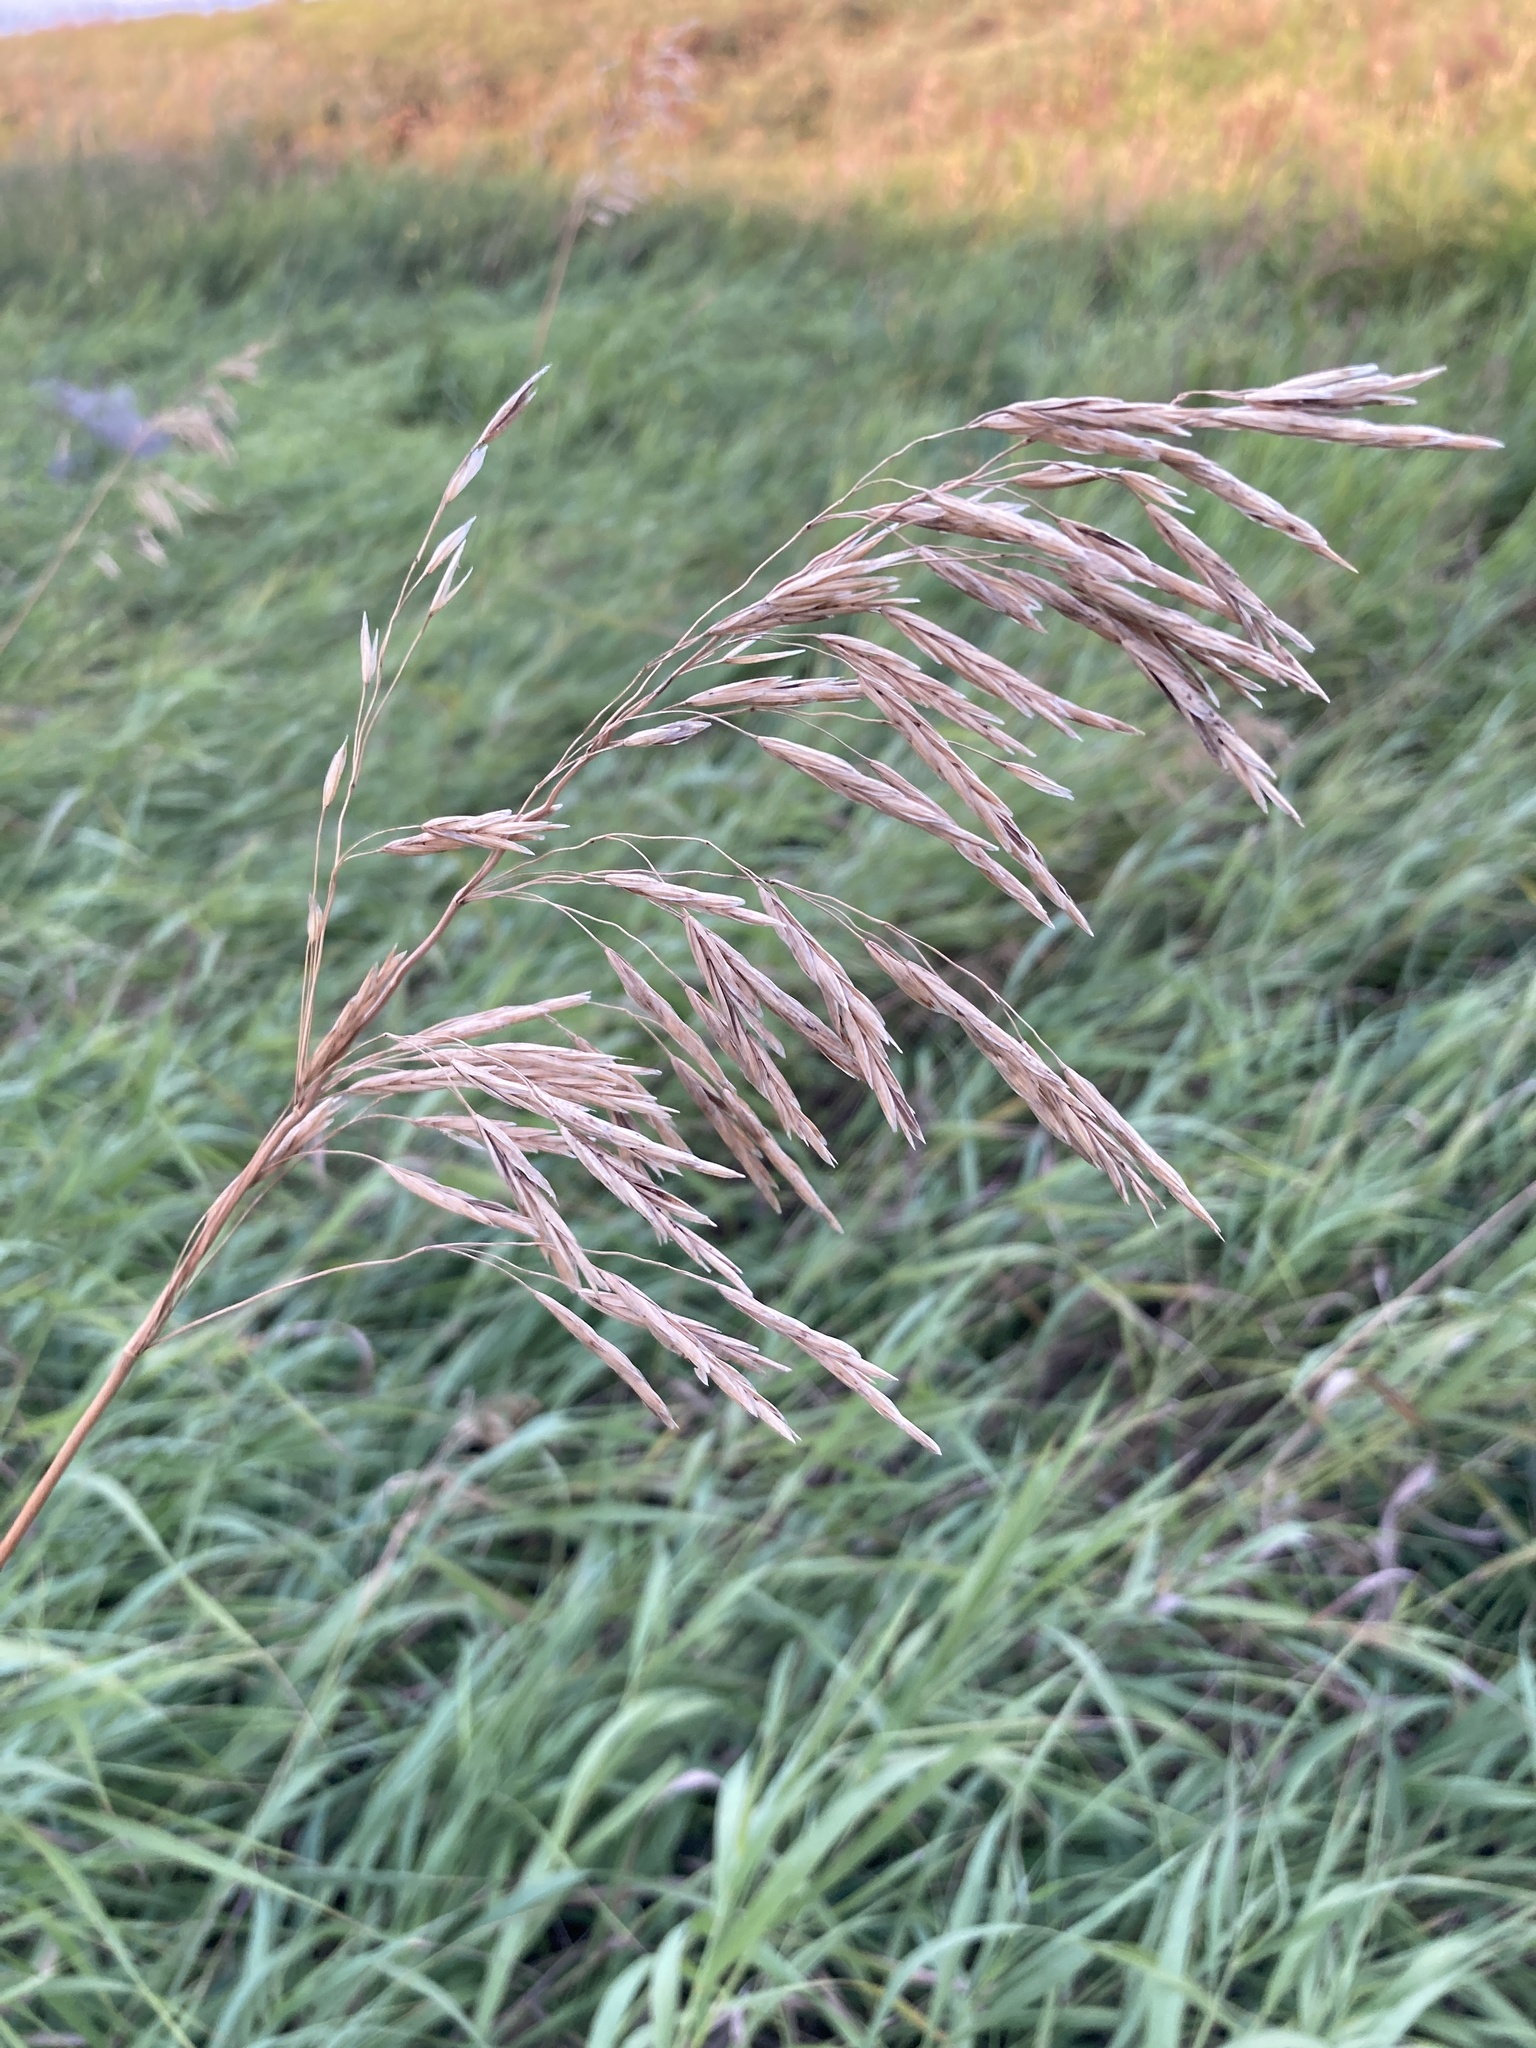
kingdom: Plantae
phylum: Tracheophyta
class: Liliopsida
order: Poales
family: Poaceae
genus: Bromus
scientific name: Bromus inermis
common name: Smooth brome
